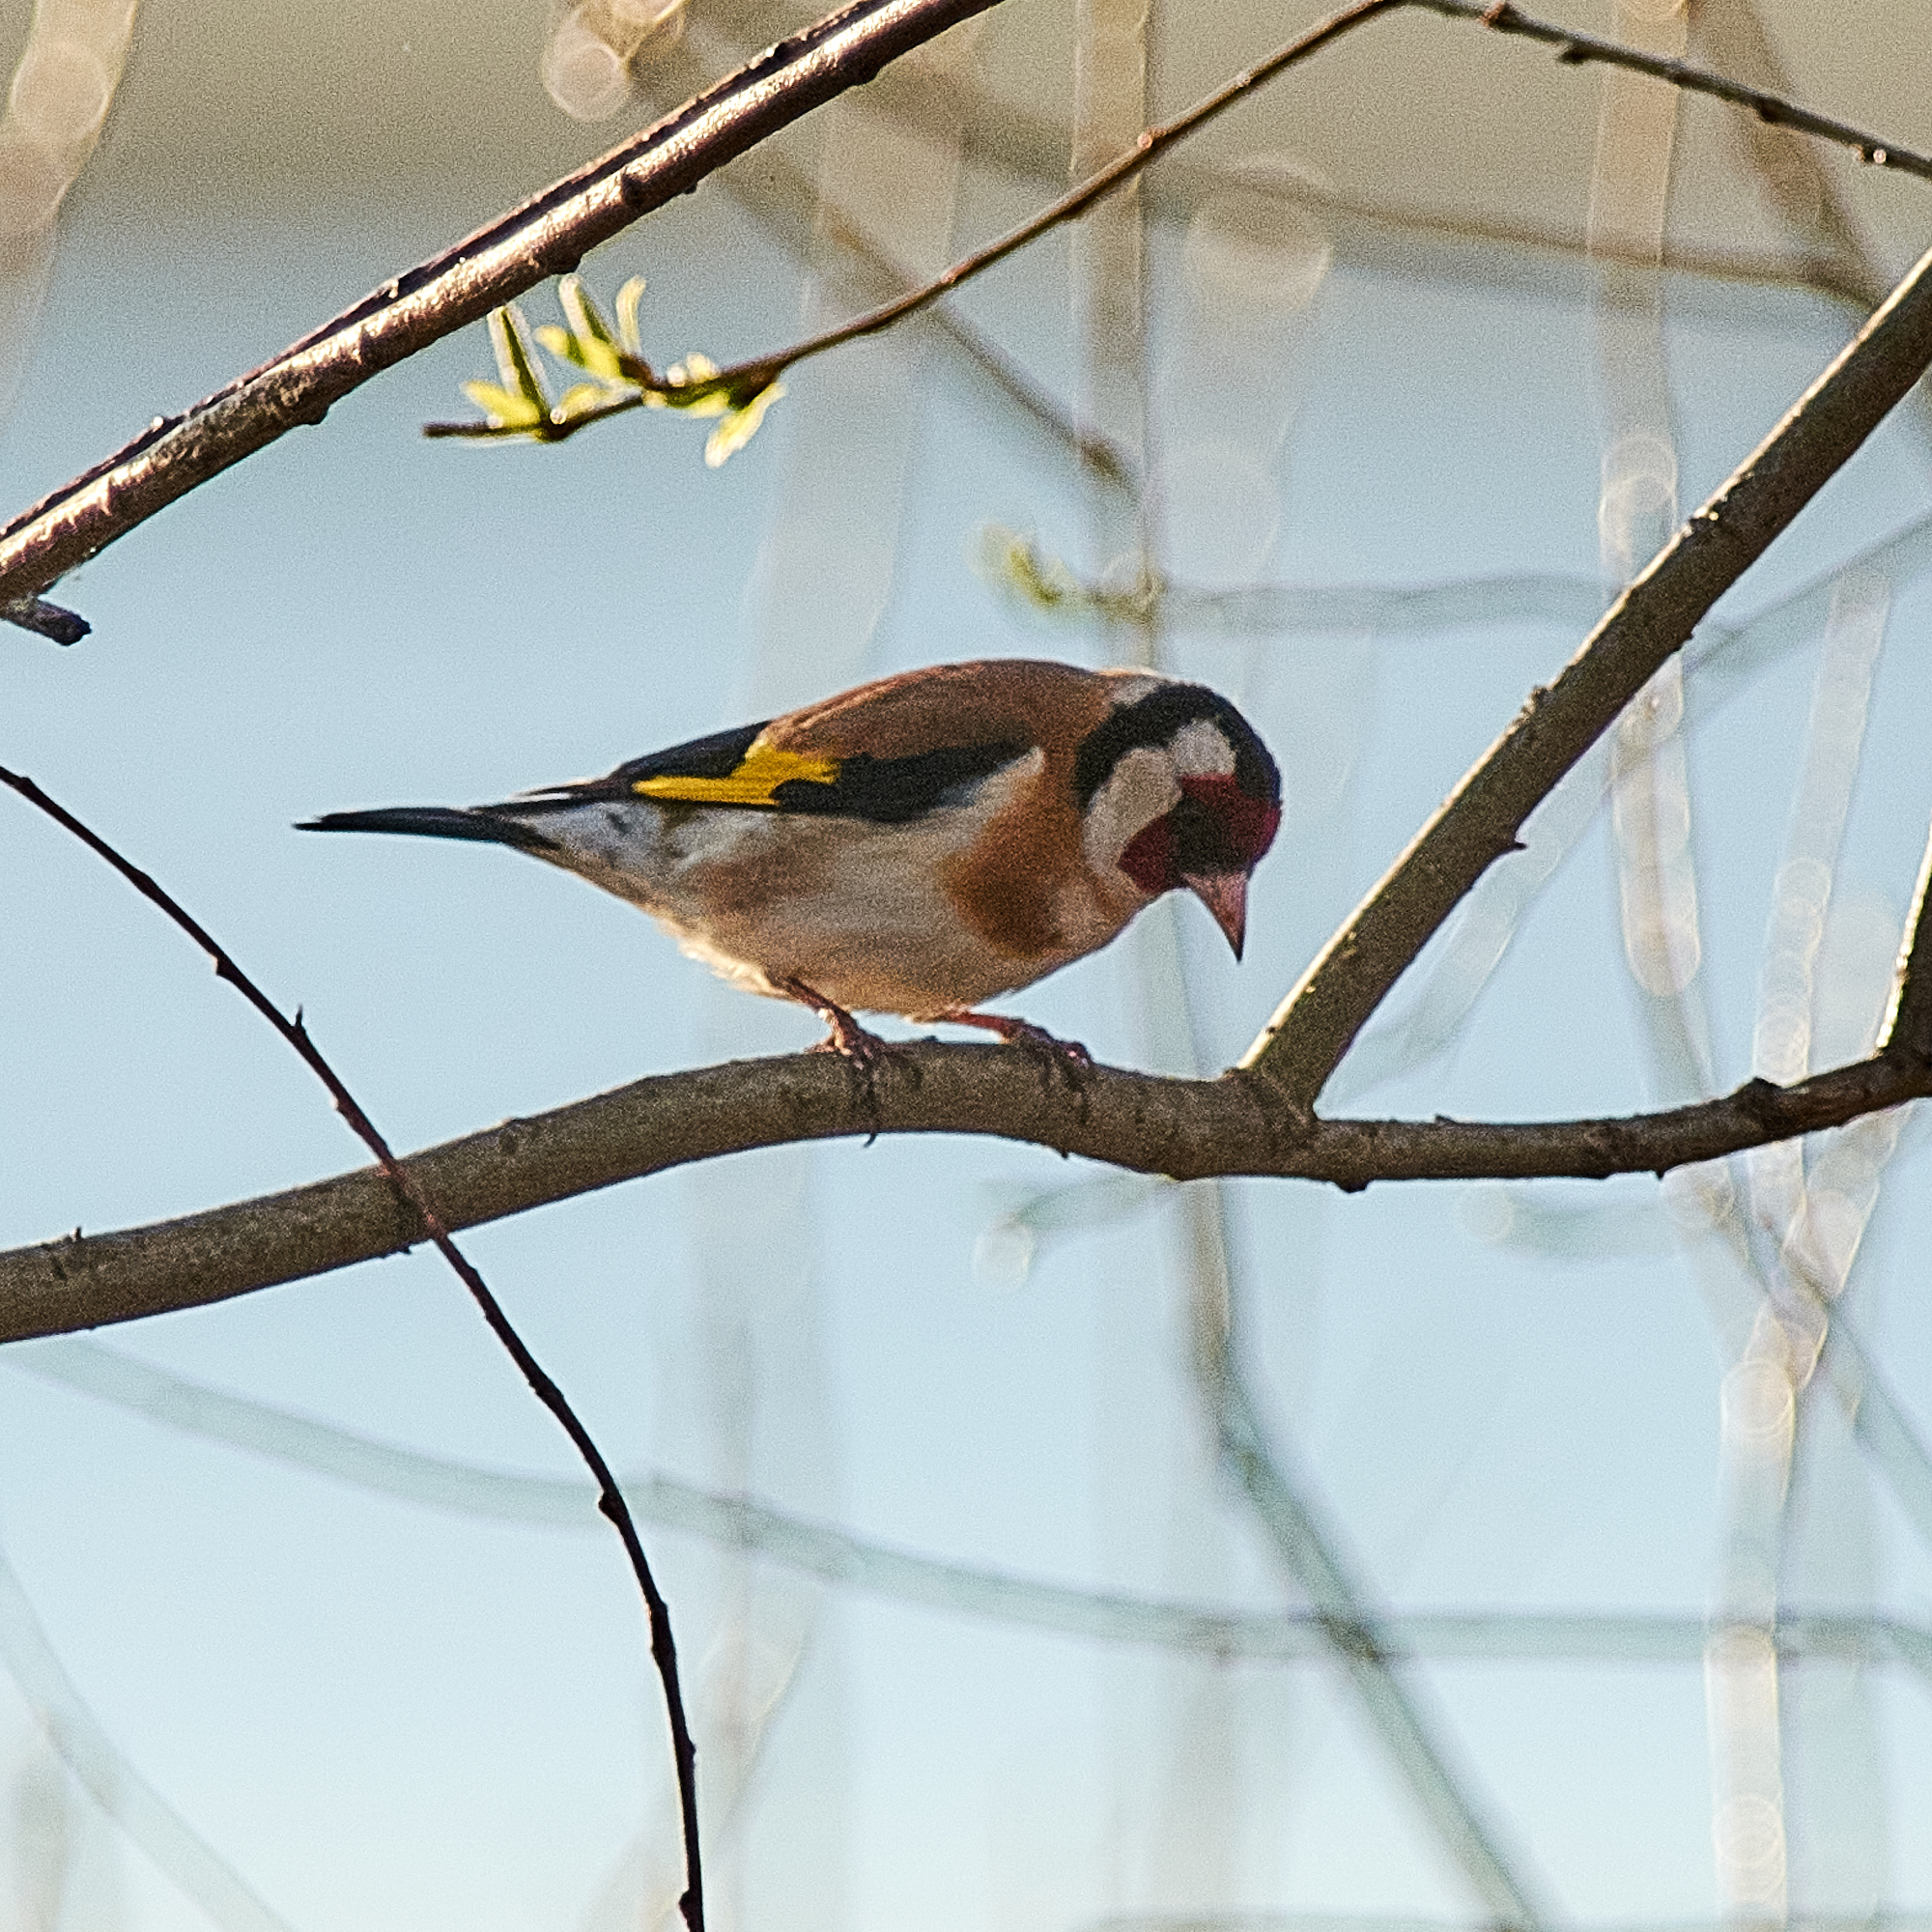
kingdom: Animalia
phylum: Chordata
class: Aves
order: Passeriformes
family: Fringillidae
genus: Carduelis
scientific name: Carduelis carduelis
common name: European goldfinch
